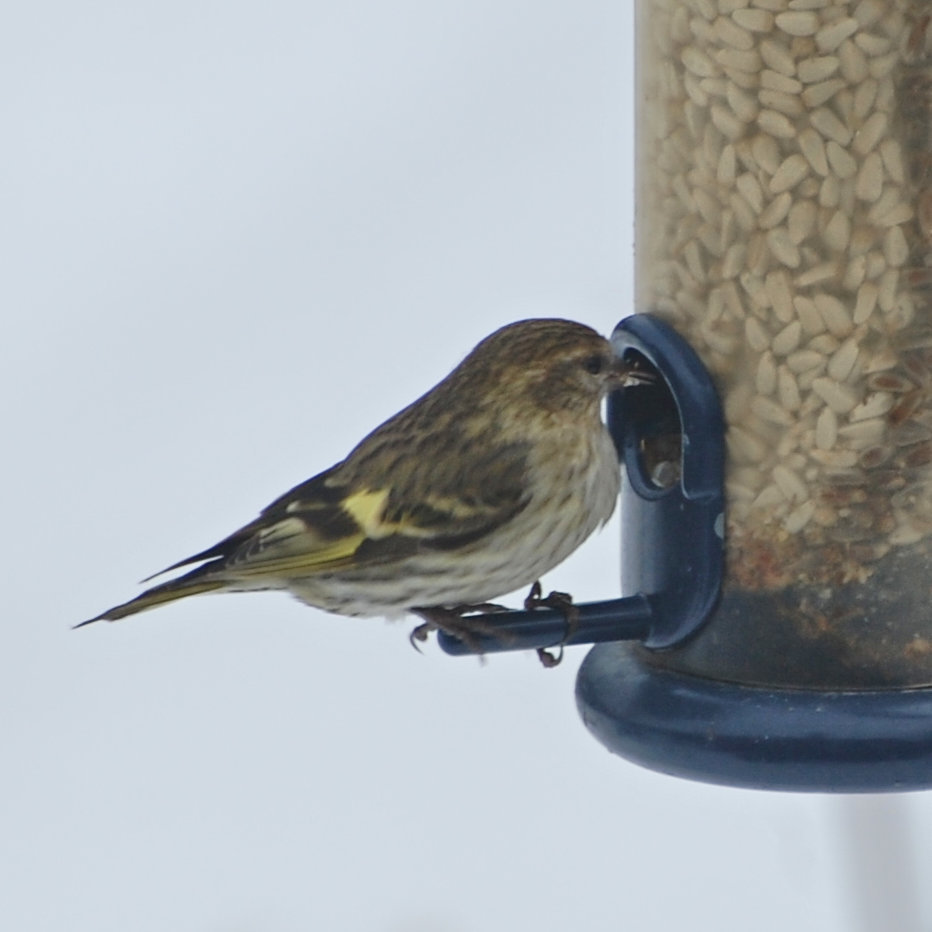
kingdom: Animalia
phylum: Chordata
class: Aves
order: Passeriformes
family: Fringillidae
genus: Spinus
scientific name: Spinus pinus
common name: Pine siskin
